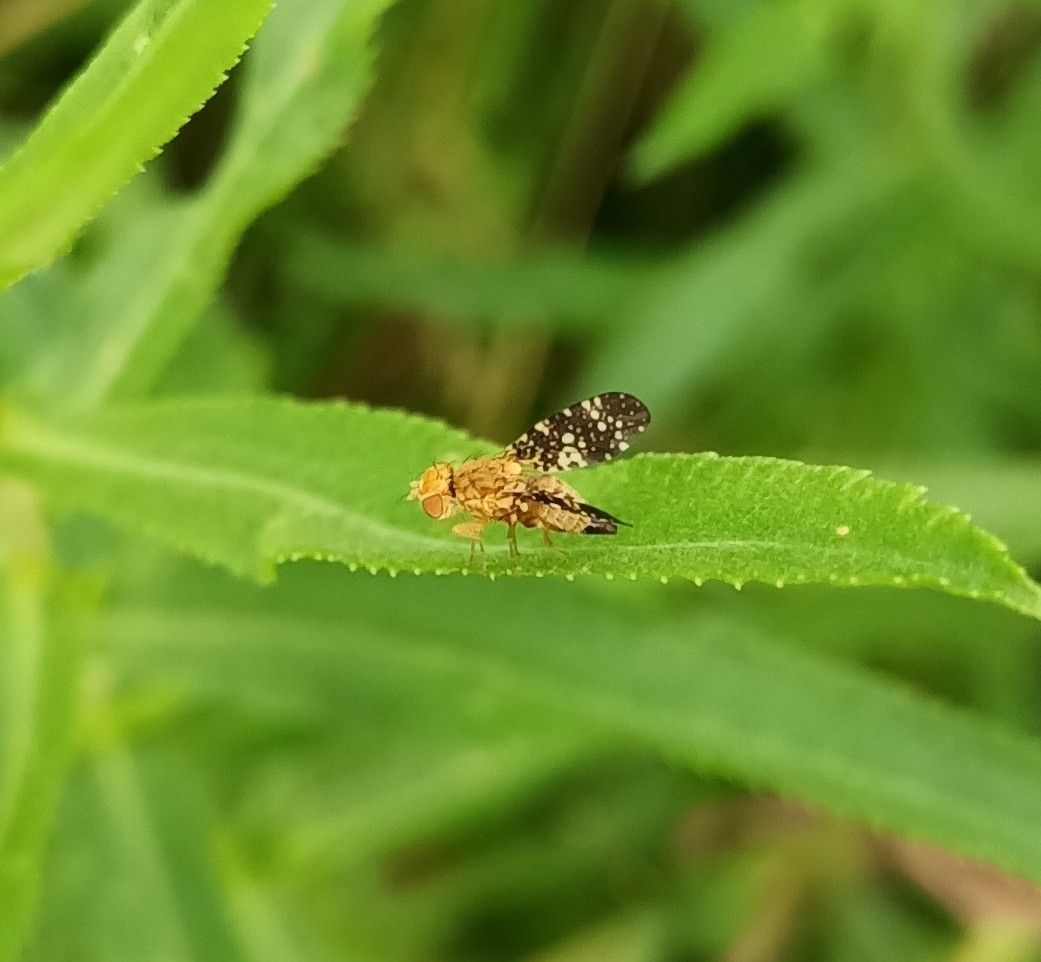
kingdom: Animalia
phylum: Arthropoda
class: Insecta
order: Diptera
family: Tephritidae
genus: Oxyna
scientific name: Oxyna flavipennis
